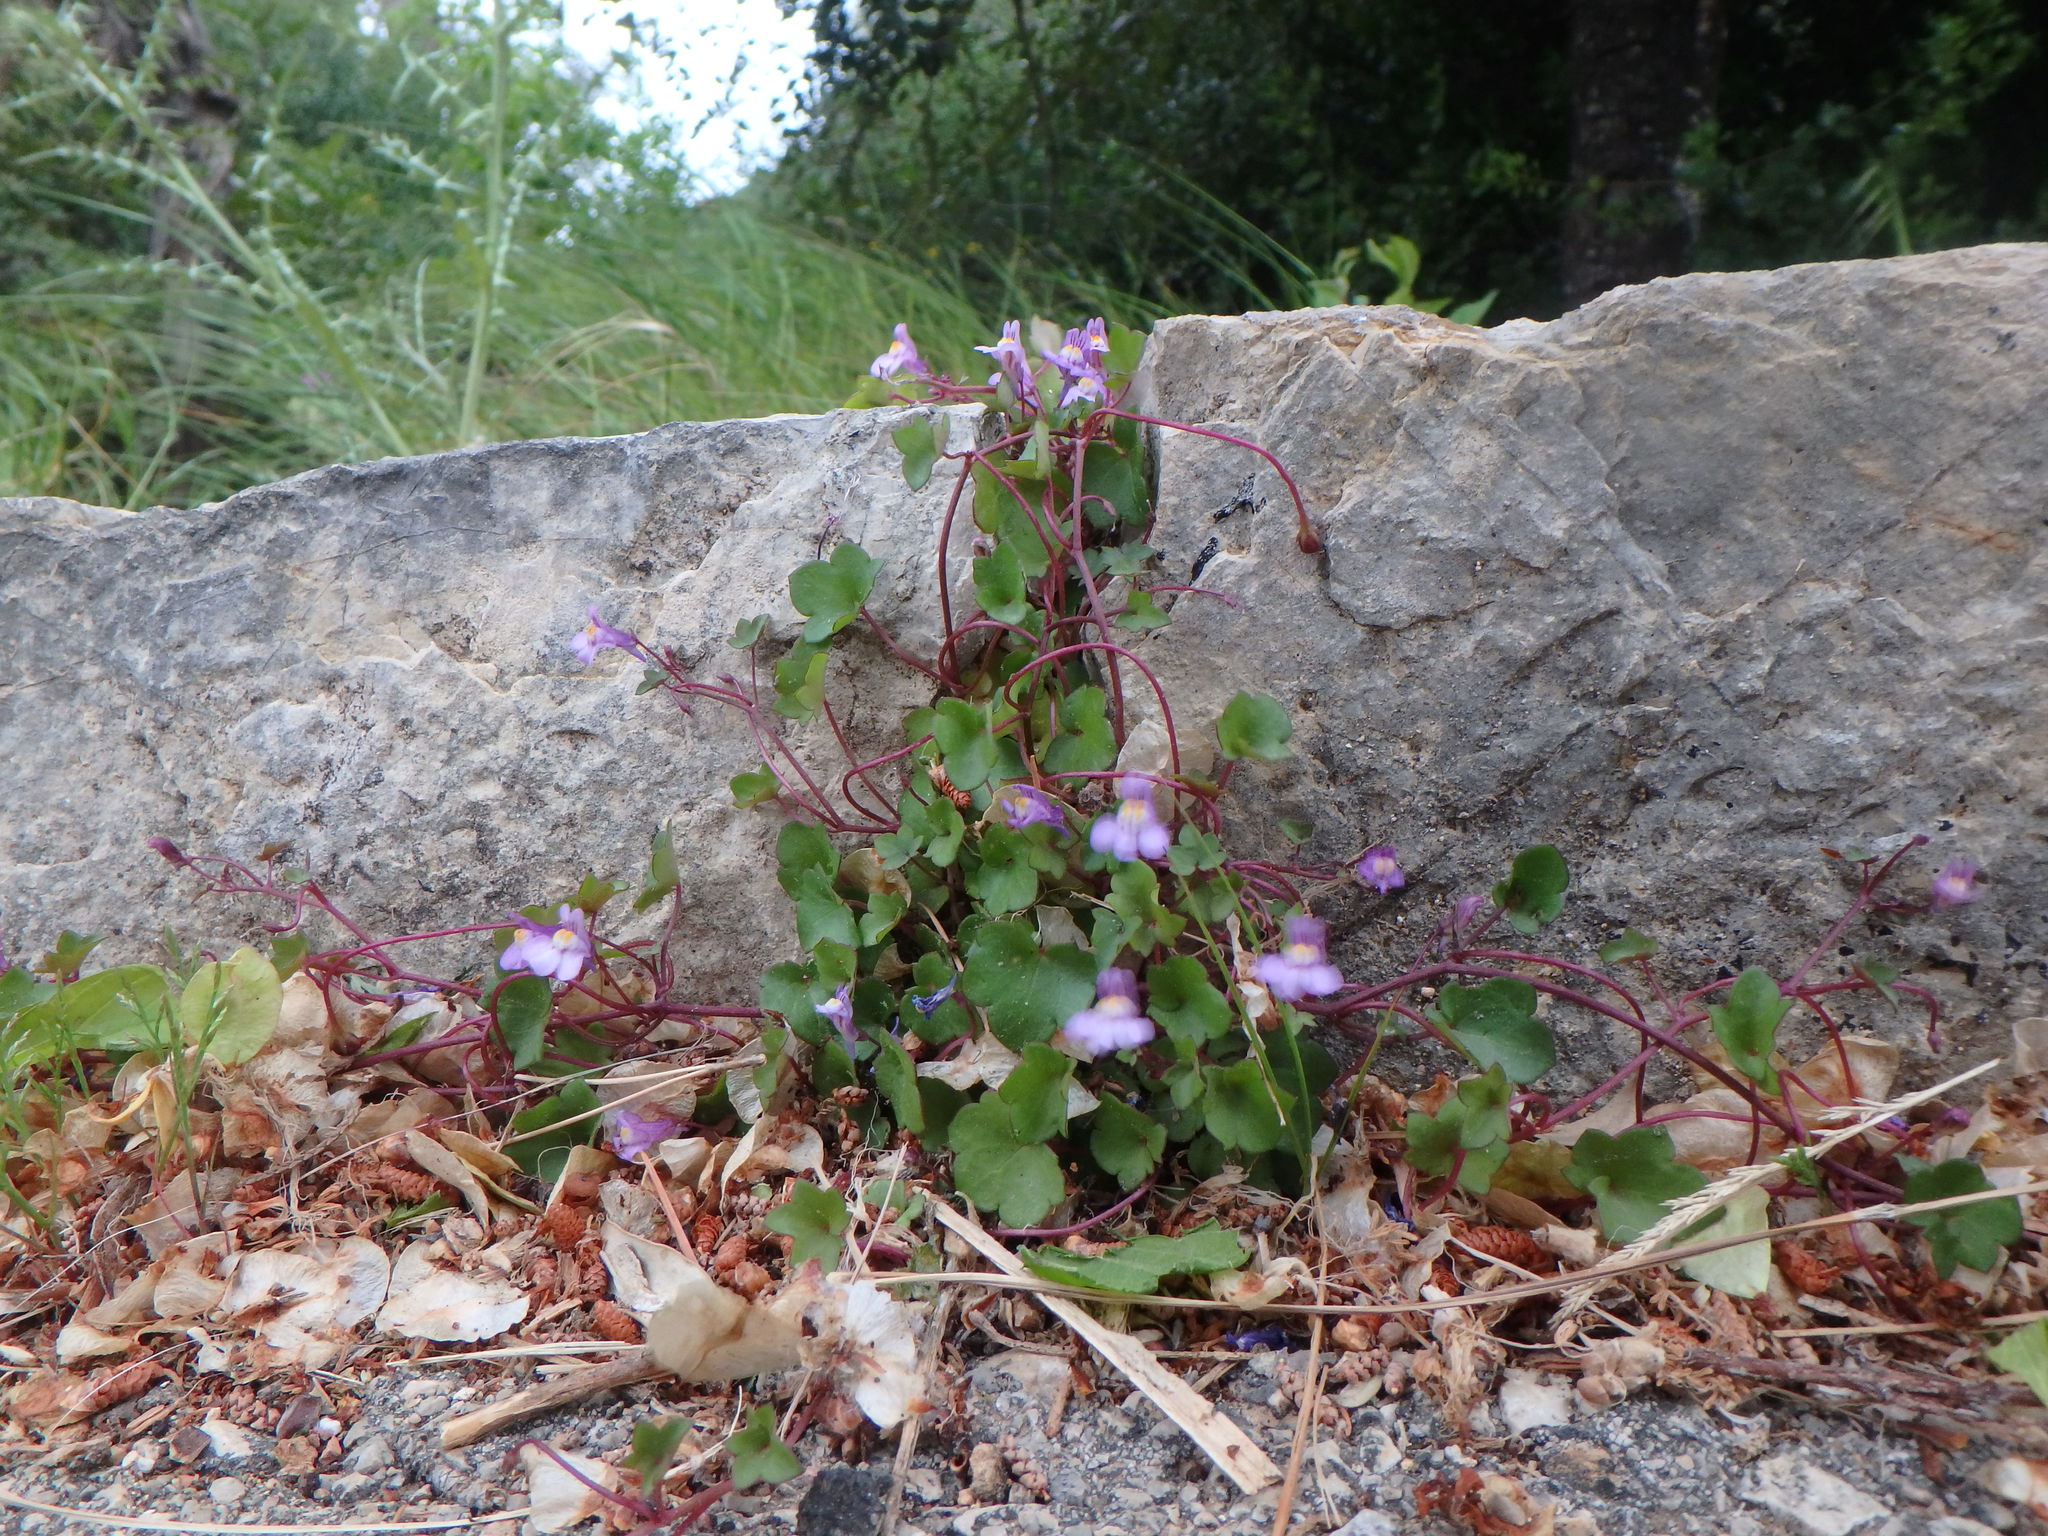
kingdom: Plantae
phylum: Tracheophyta
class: Magnoliopsida
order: Lamiales
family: Plantaginaceae
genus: Cymbalaria
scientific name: Cymbalaria muralis
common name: Ivy-leaved toadflax
